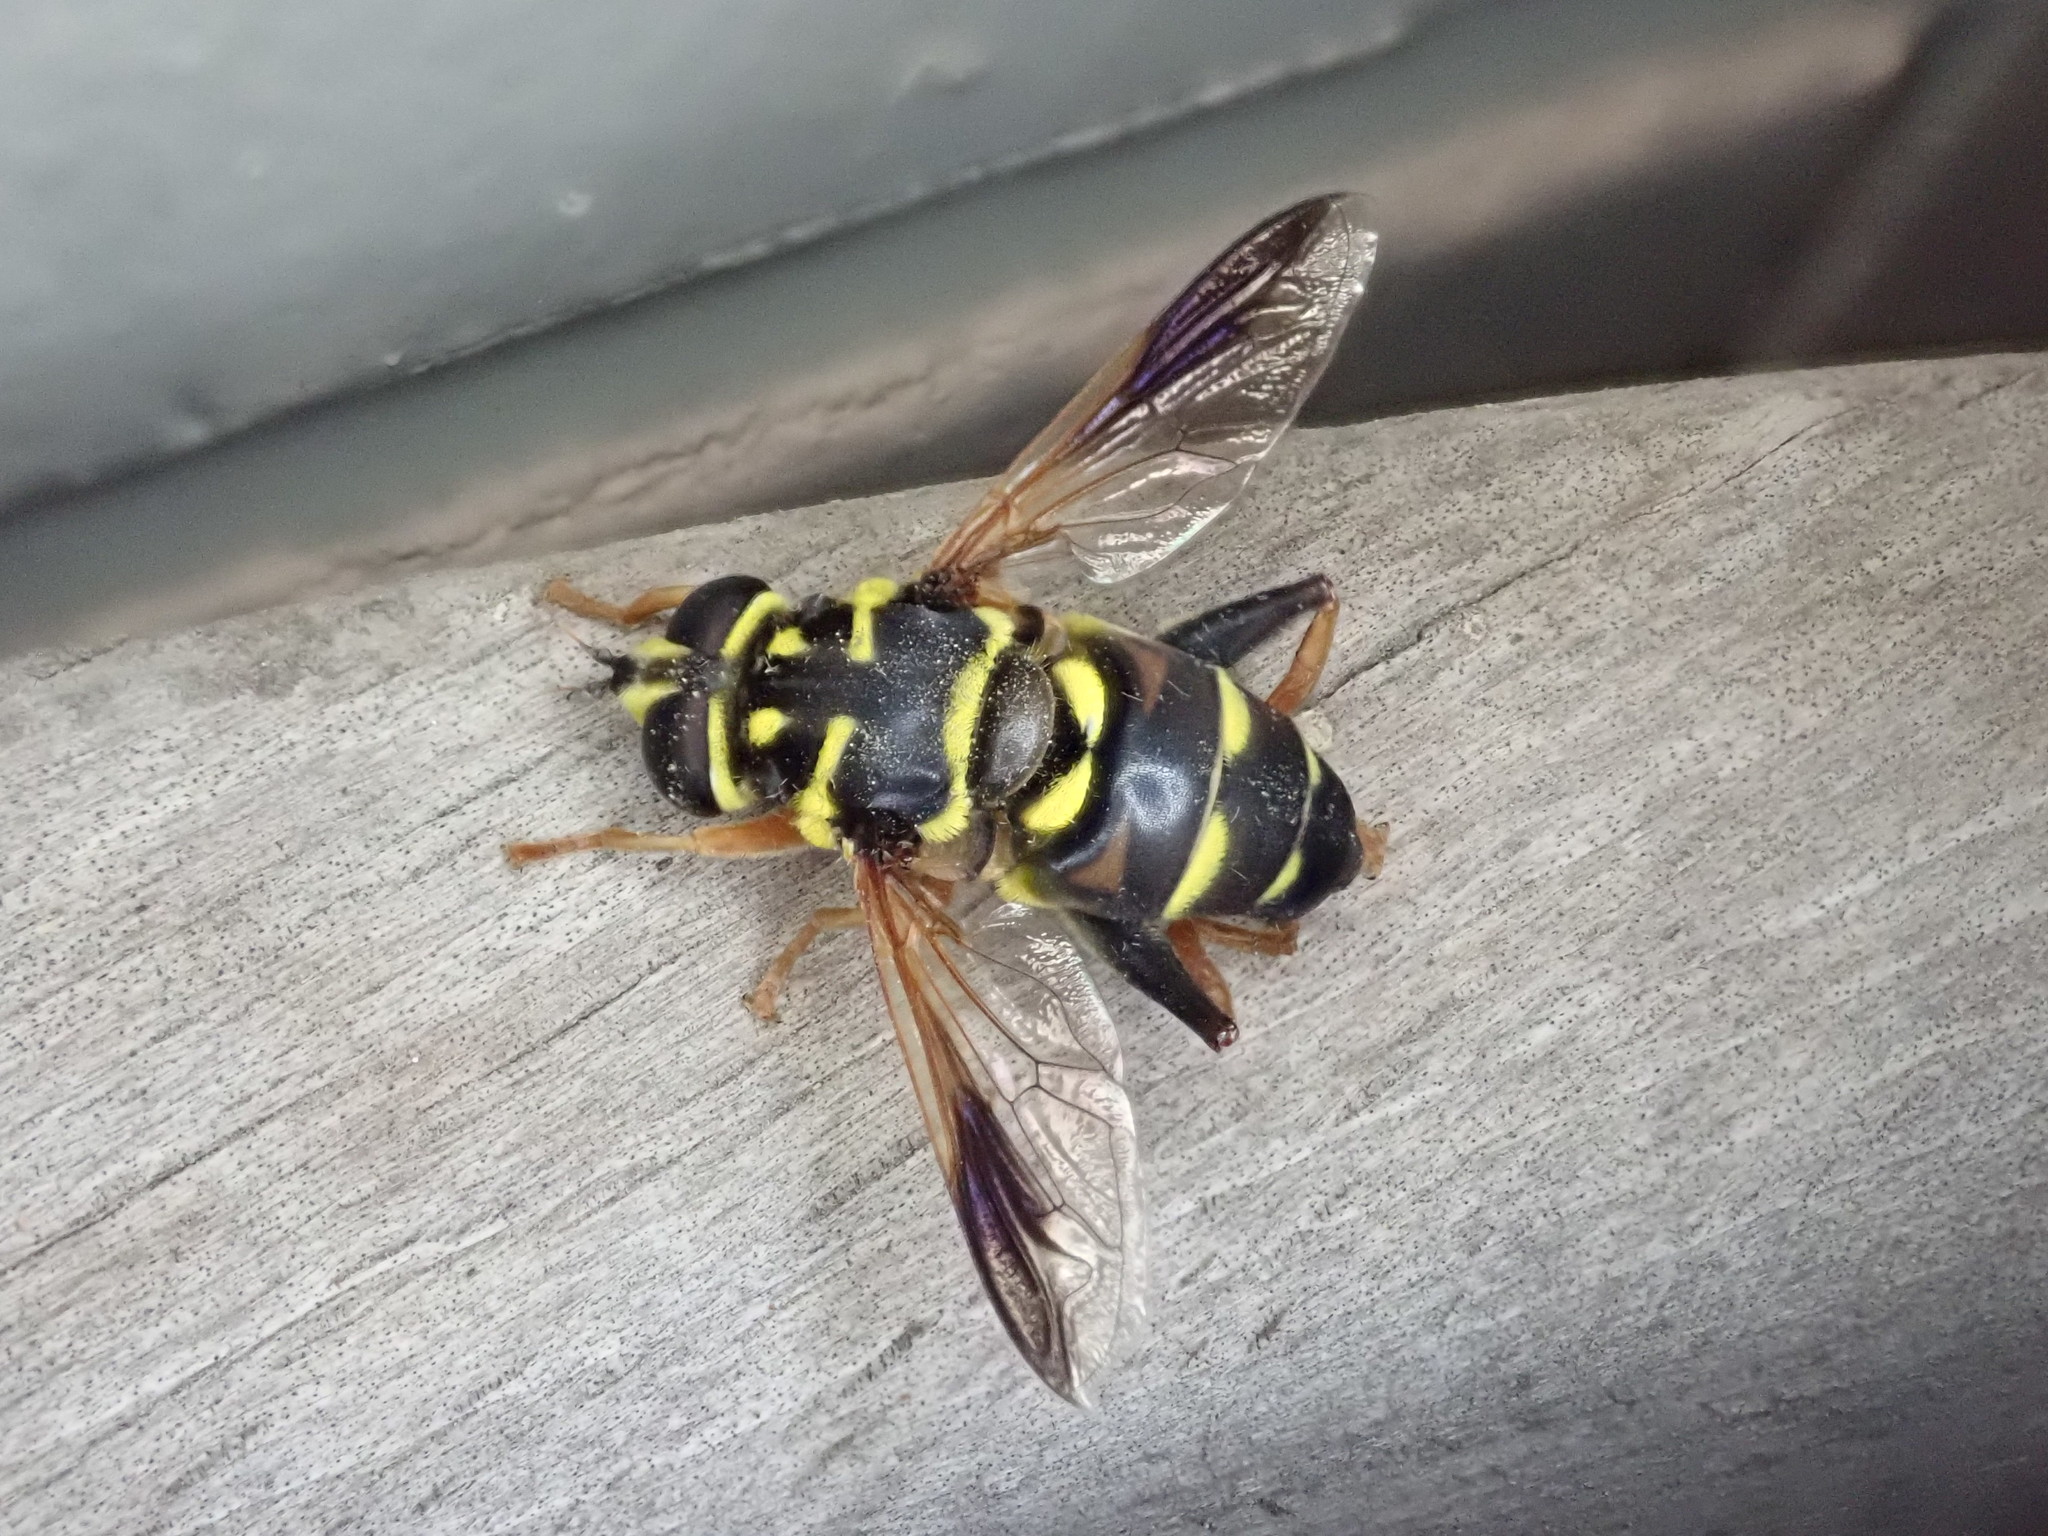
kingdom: Animalia
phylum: Arthropoda
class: Insecta
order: Diptera
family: Syrphidae
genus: Meromacrus
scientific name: Meromacrus acutus
